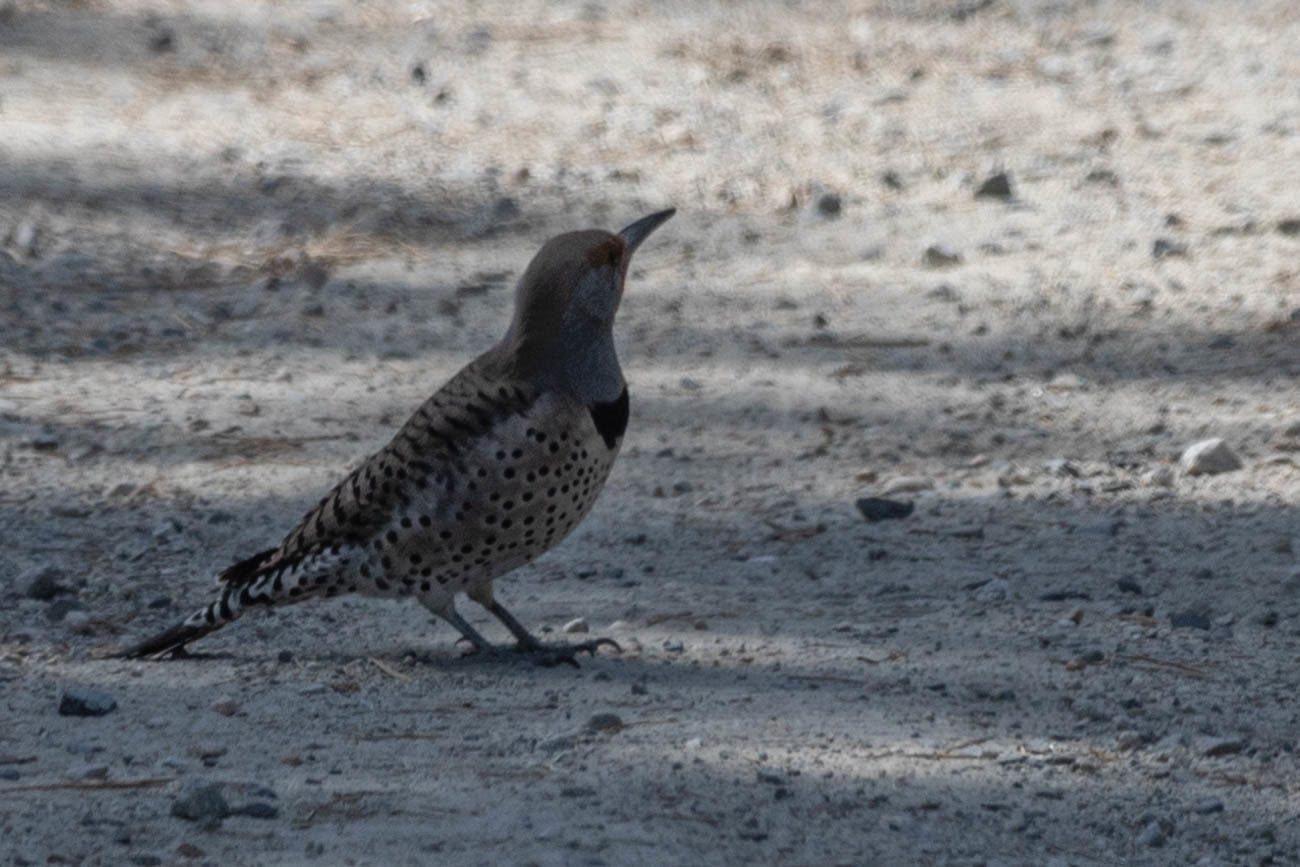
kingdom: Animalia
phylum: Chordata
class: Aves
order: Piciformes
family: Picidae
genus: Colaptes
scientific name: Colaptes auratus
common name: Northern flicker
